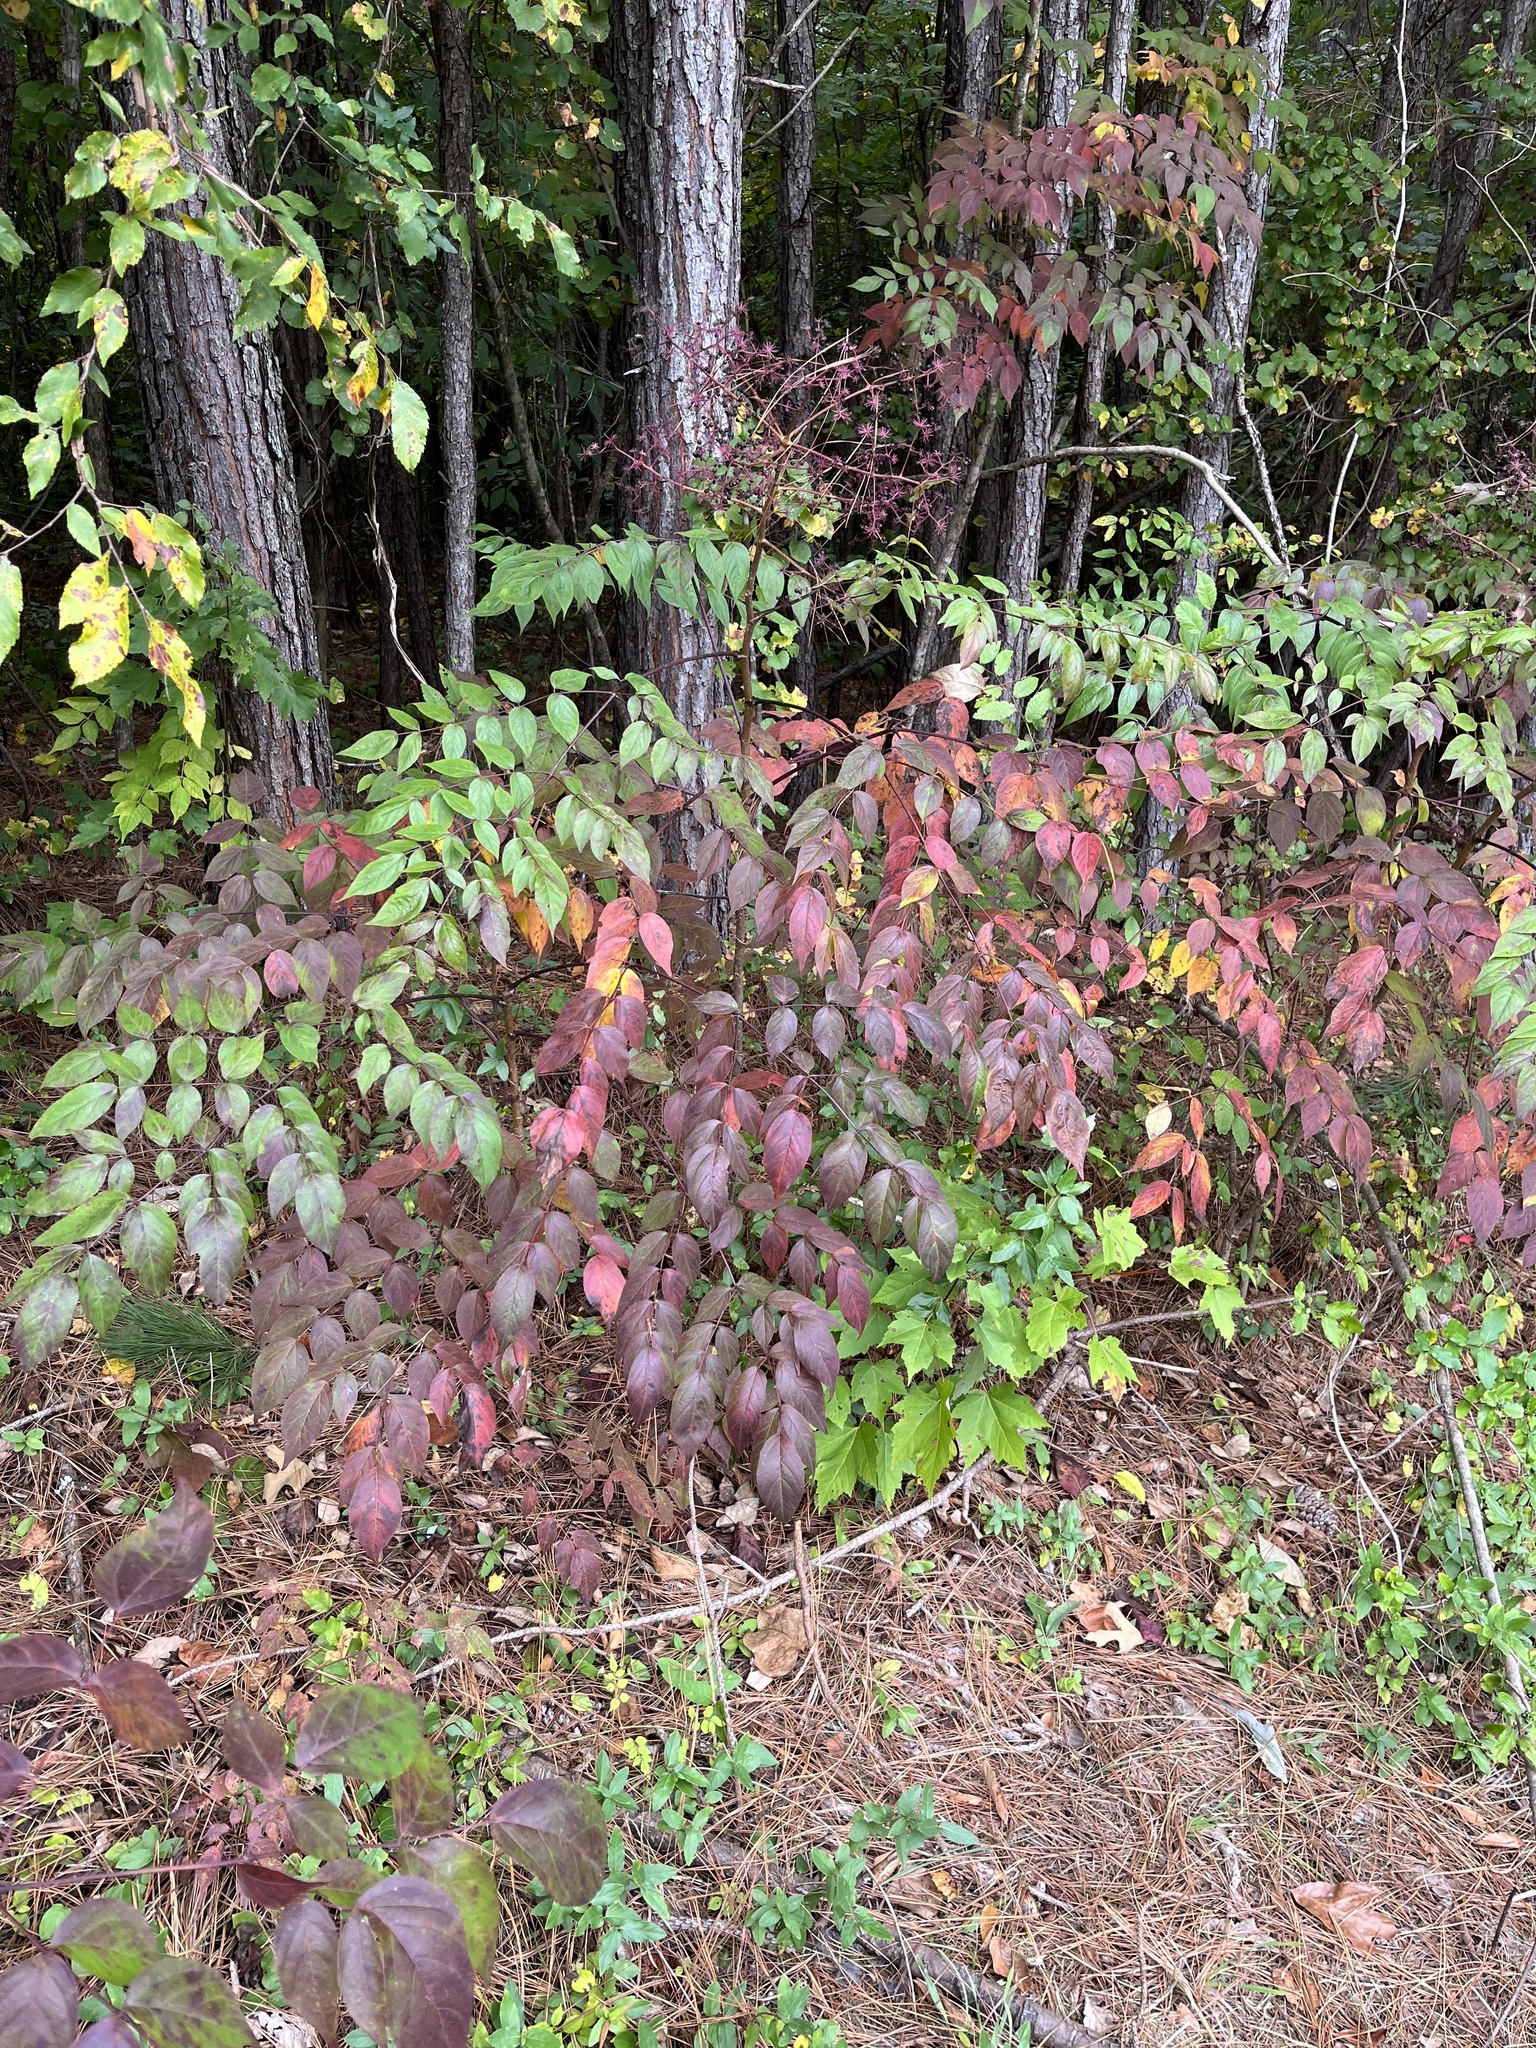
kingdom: Plantae
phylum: Tracheophyta
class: Magnoliopsida
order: Apiales
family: Araliaceae
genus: Aralia
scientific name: Aralia spinosa
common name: Hercules'-club
